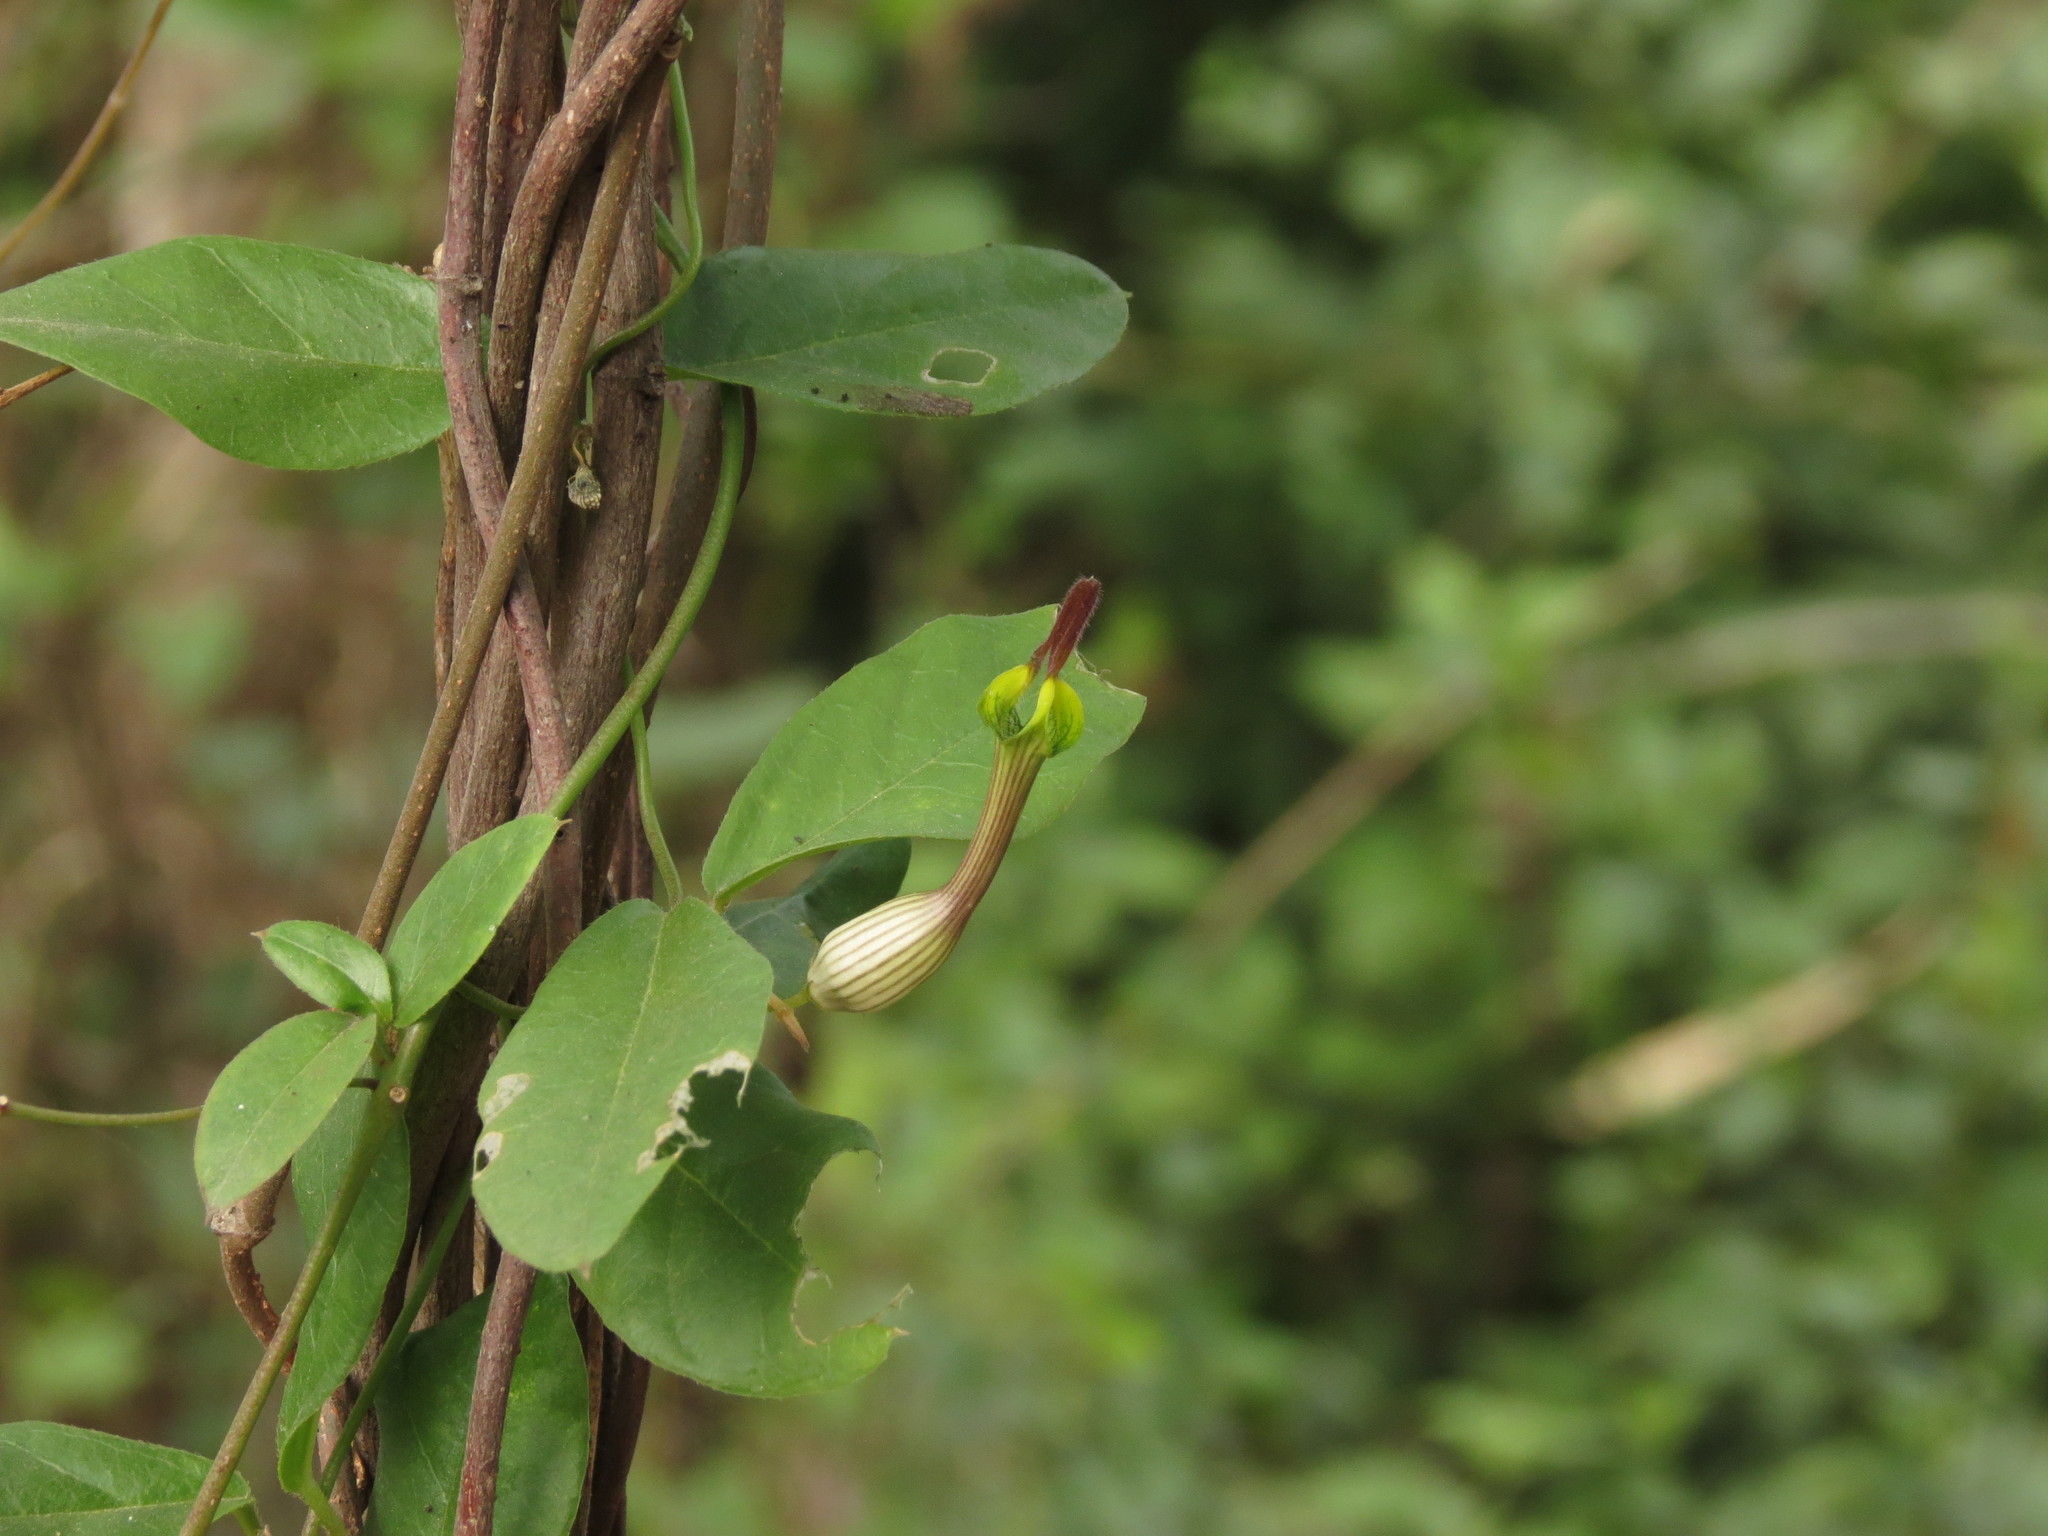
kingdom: Plantae
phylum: Tracheophyta
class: Magnoliopsida
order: Gentianales
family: Apocynaceae
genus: Ceropegia
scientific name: Ceropegia candelabrum
